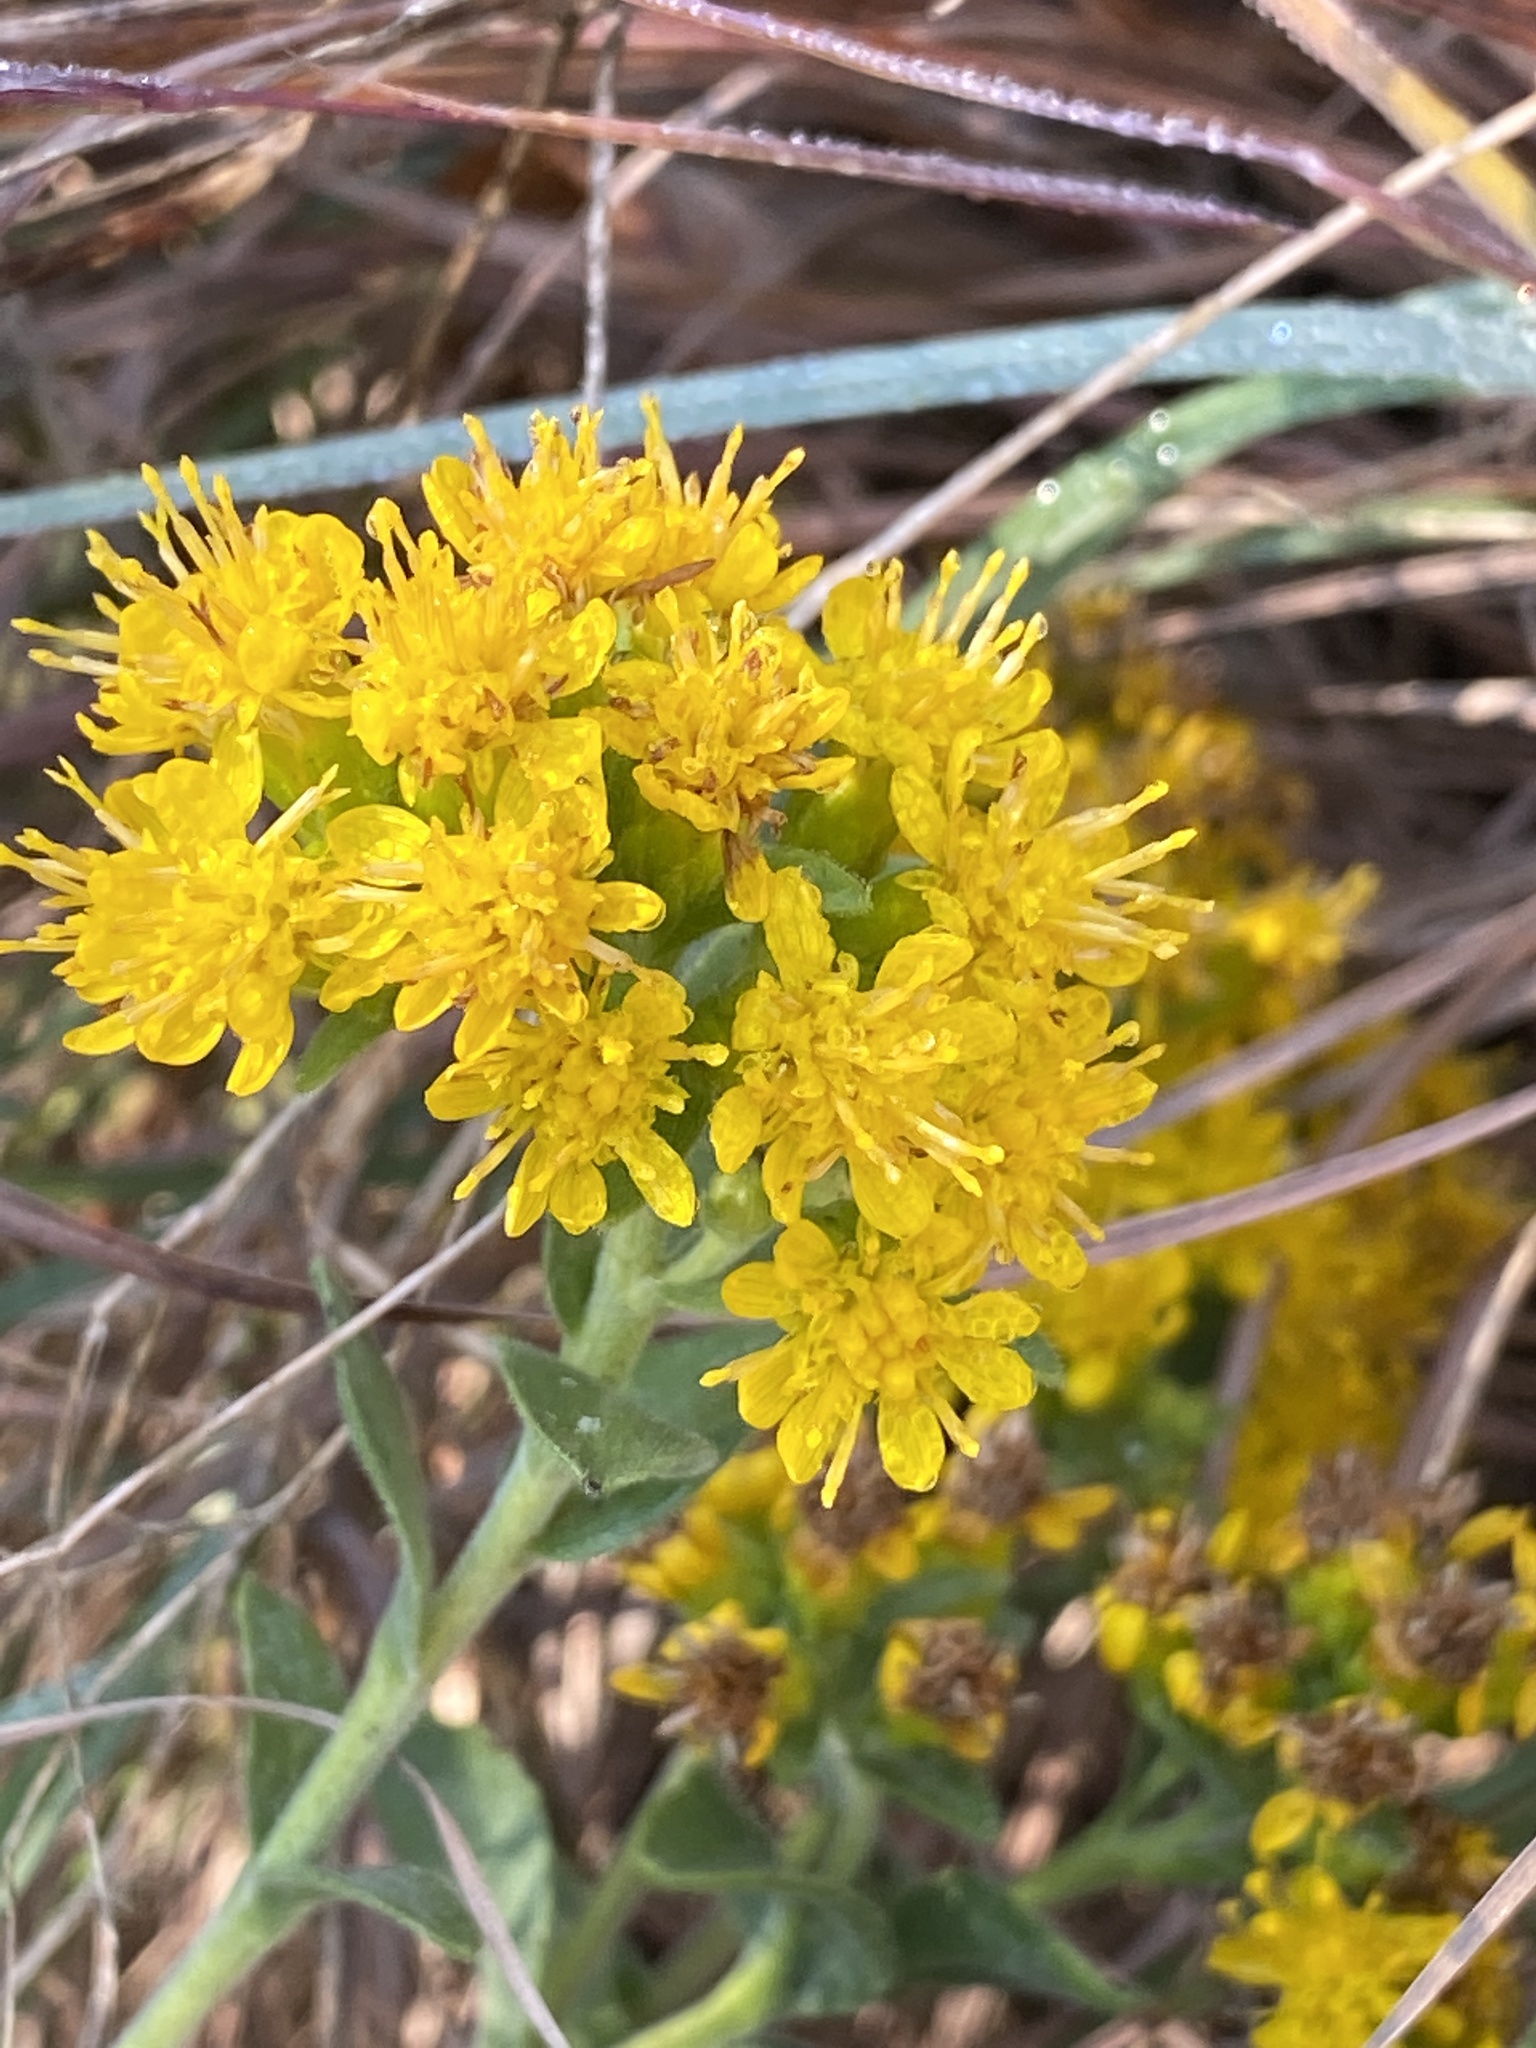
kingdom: Plantae
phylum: Tracheophyta
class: Magnoliopsida
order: Asterales
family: Asteraceae
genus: Solidago
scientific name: Solidago rigida
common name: Rigid goldenrod
